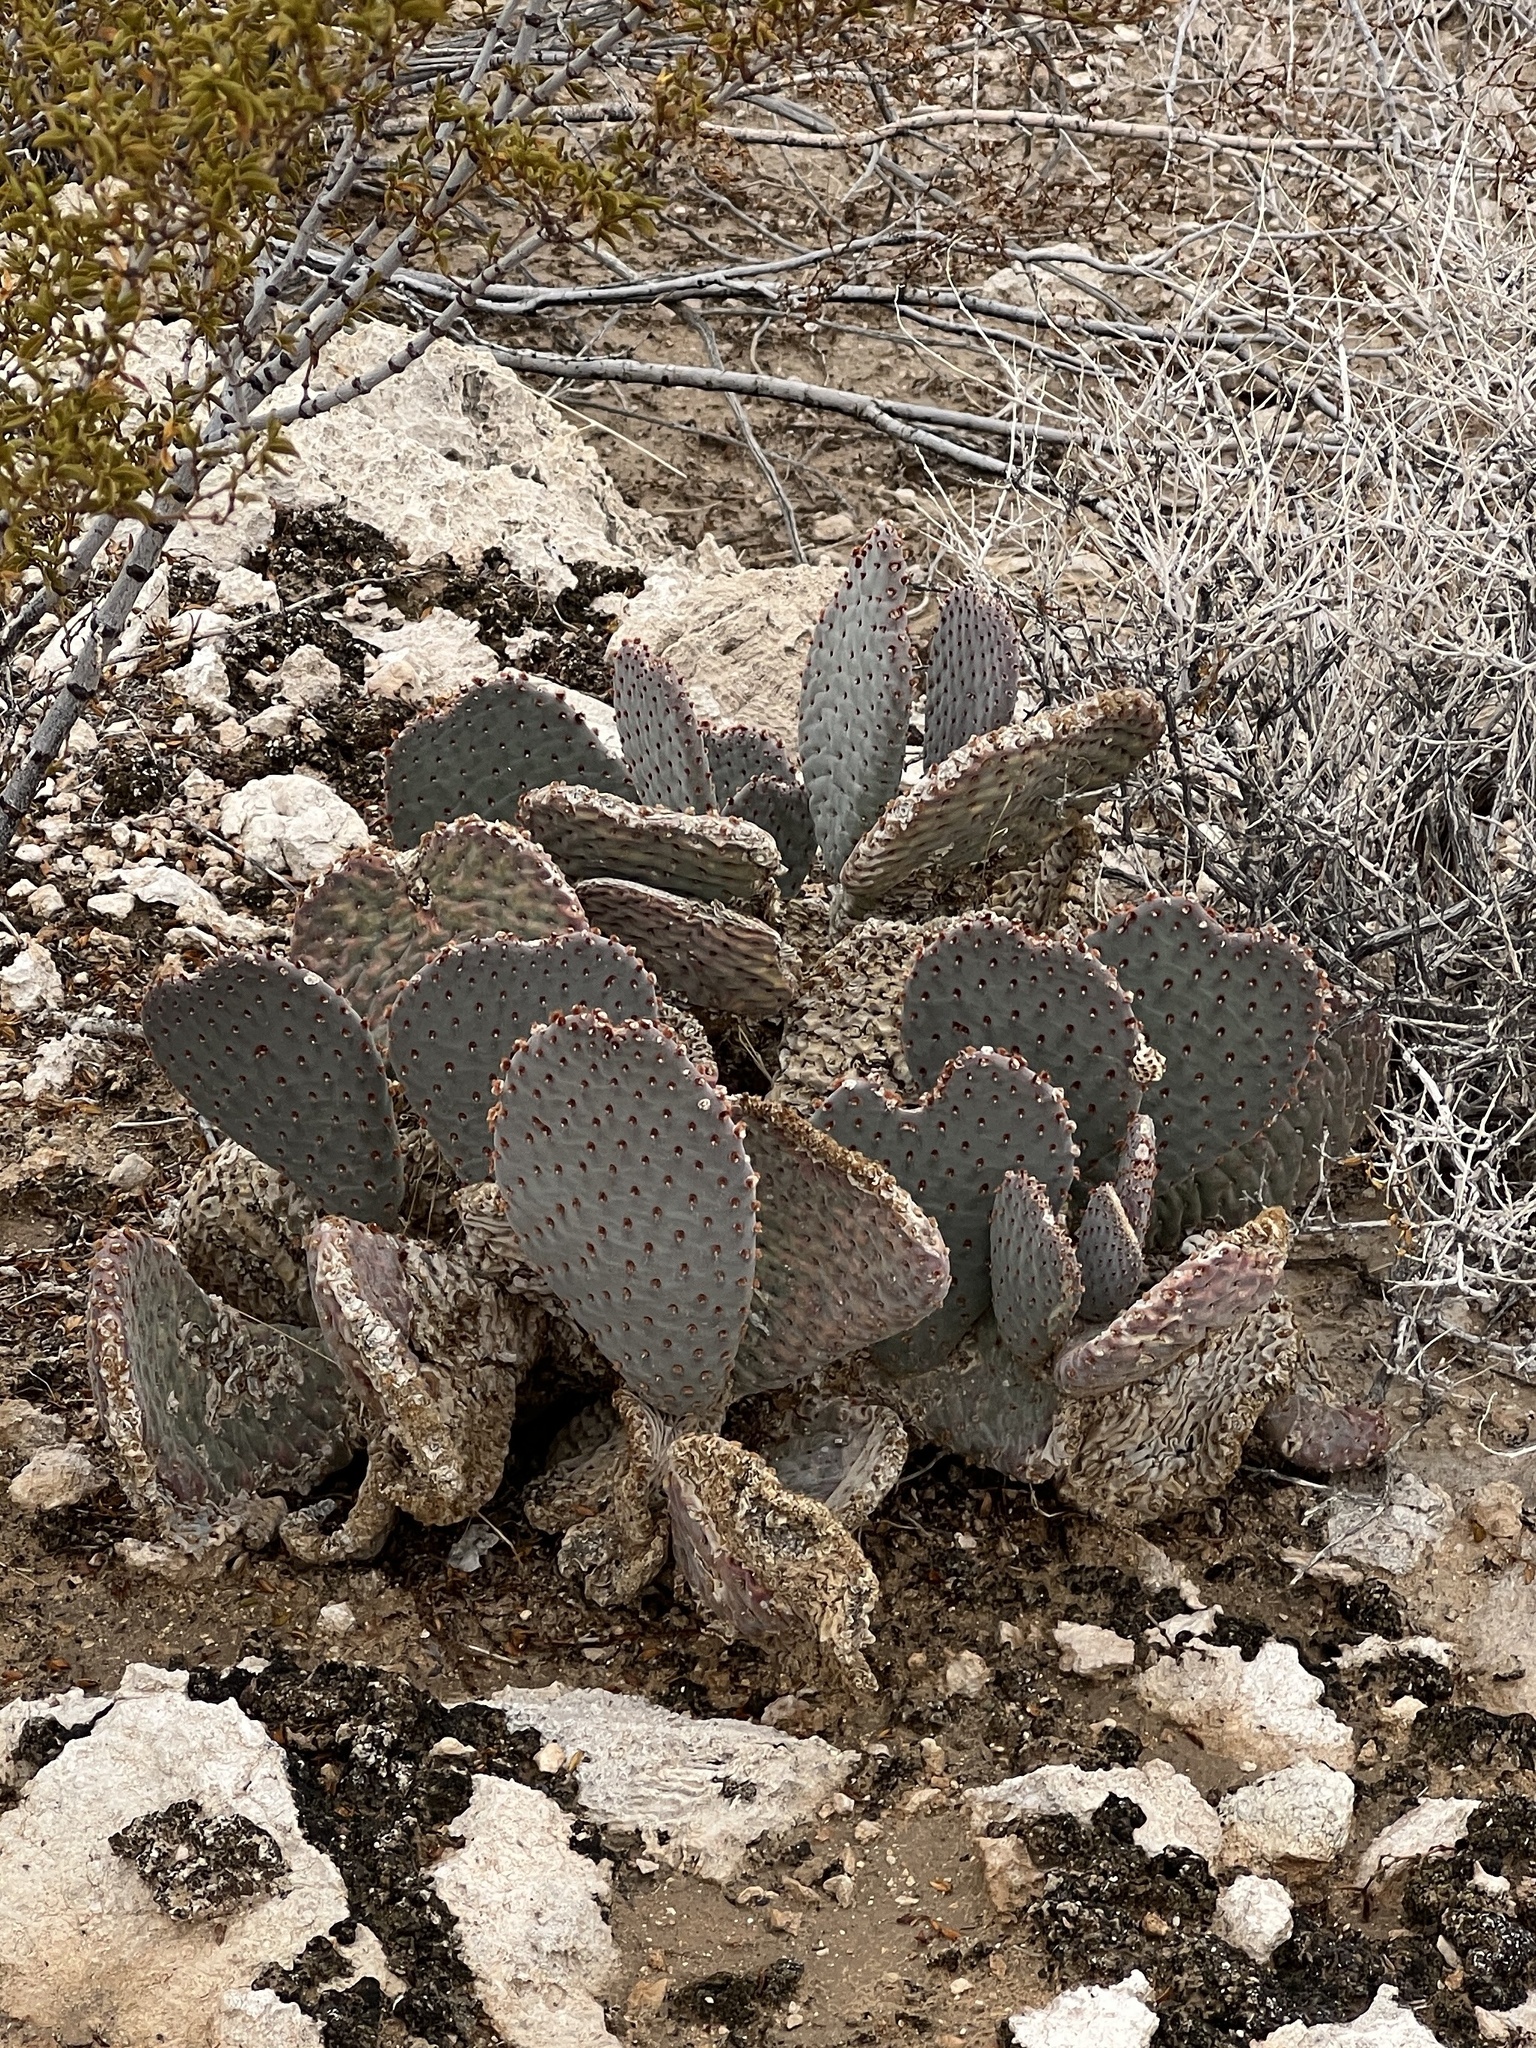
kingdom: Plantae
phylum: Tracheophyta
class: Magnoliopsida
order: Caryophyllales
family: Cactaceae
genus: Opuntia
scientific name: Opuntia basilaris
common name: Beavertail prickly-pear
